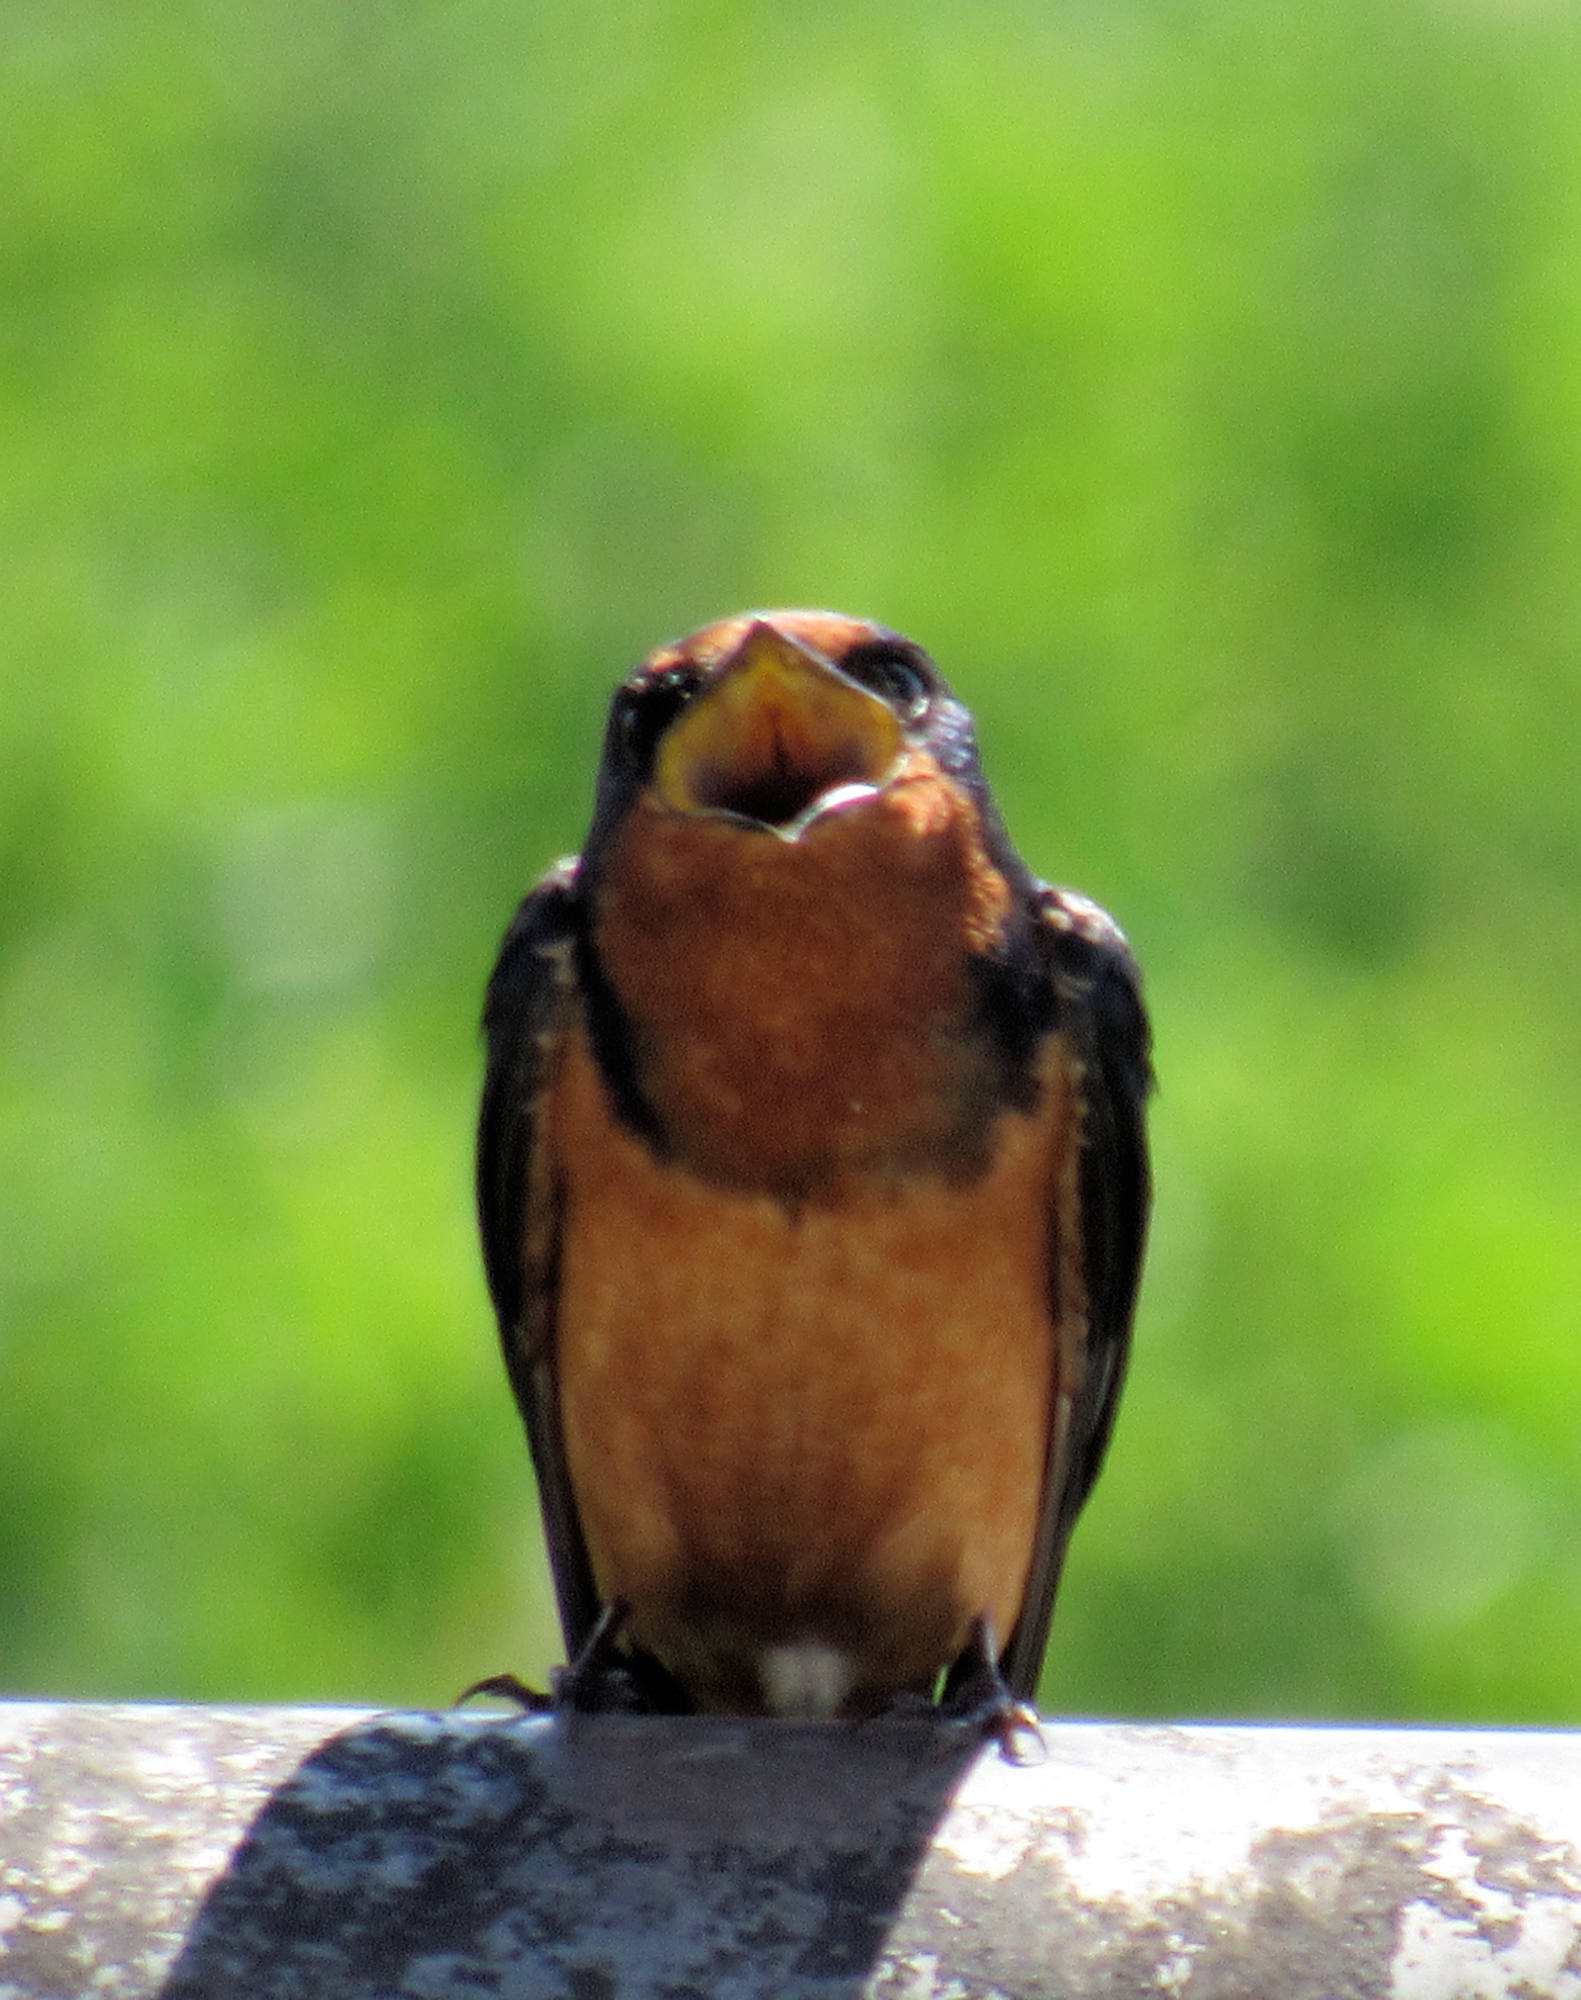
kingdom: Animalia
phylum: Chordata
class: Aves
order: Passeriformes
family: Hirundinidae
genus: Hirundo
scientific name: Hirundo rustica
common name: Barn swallow
